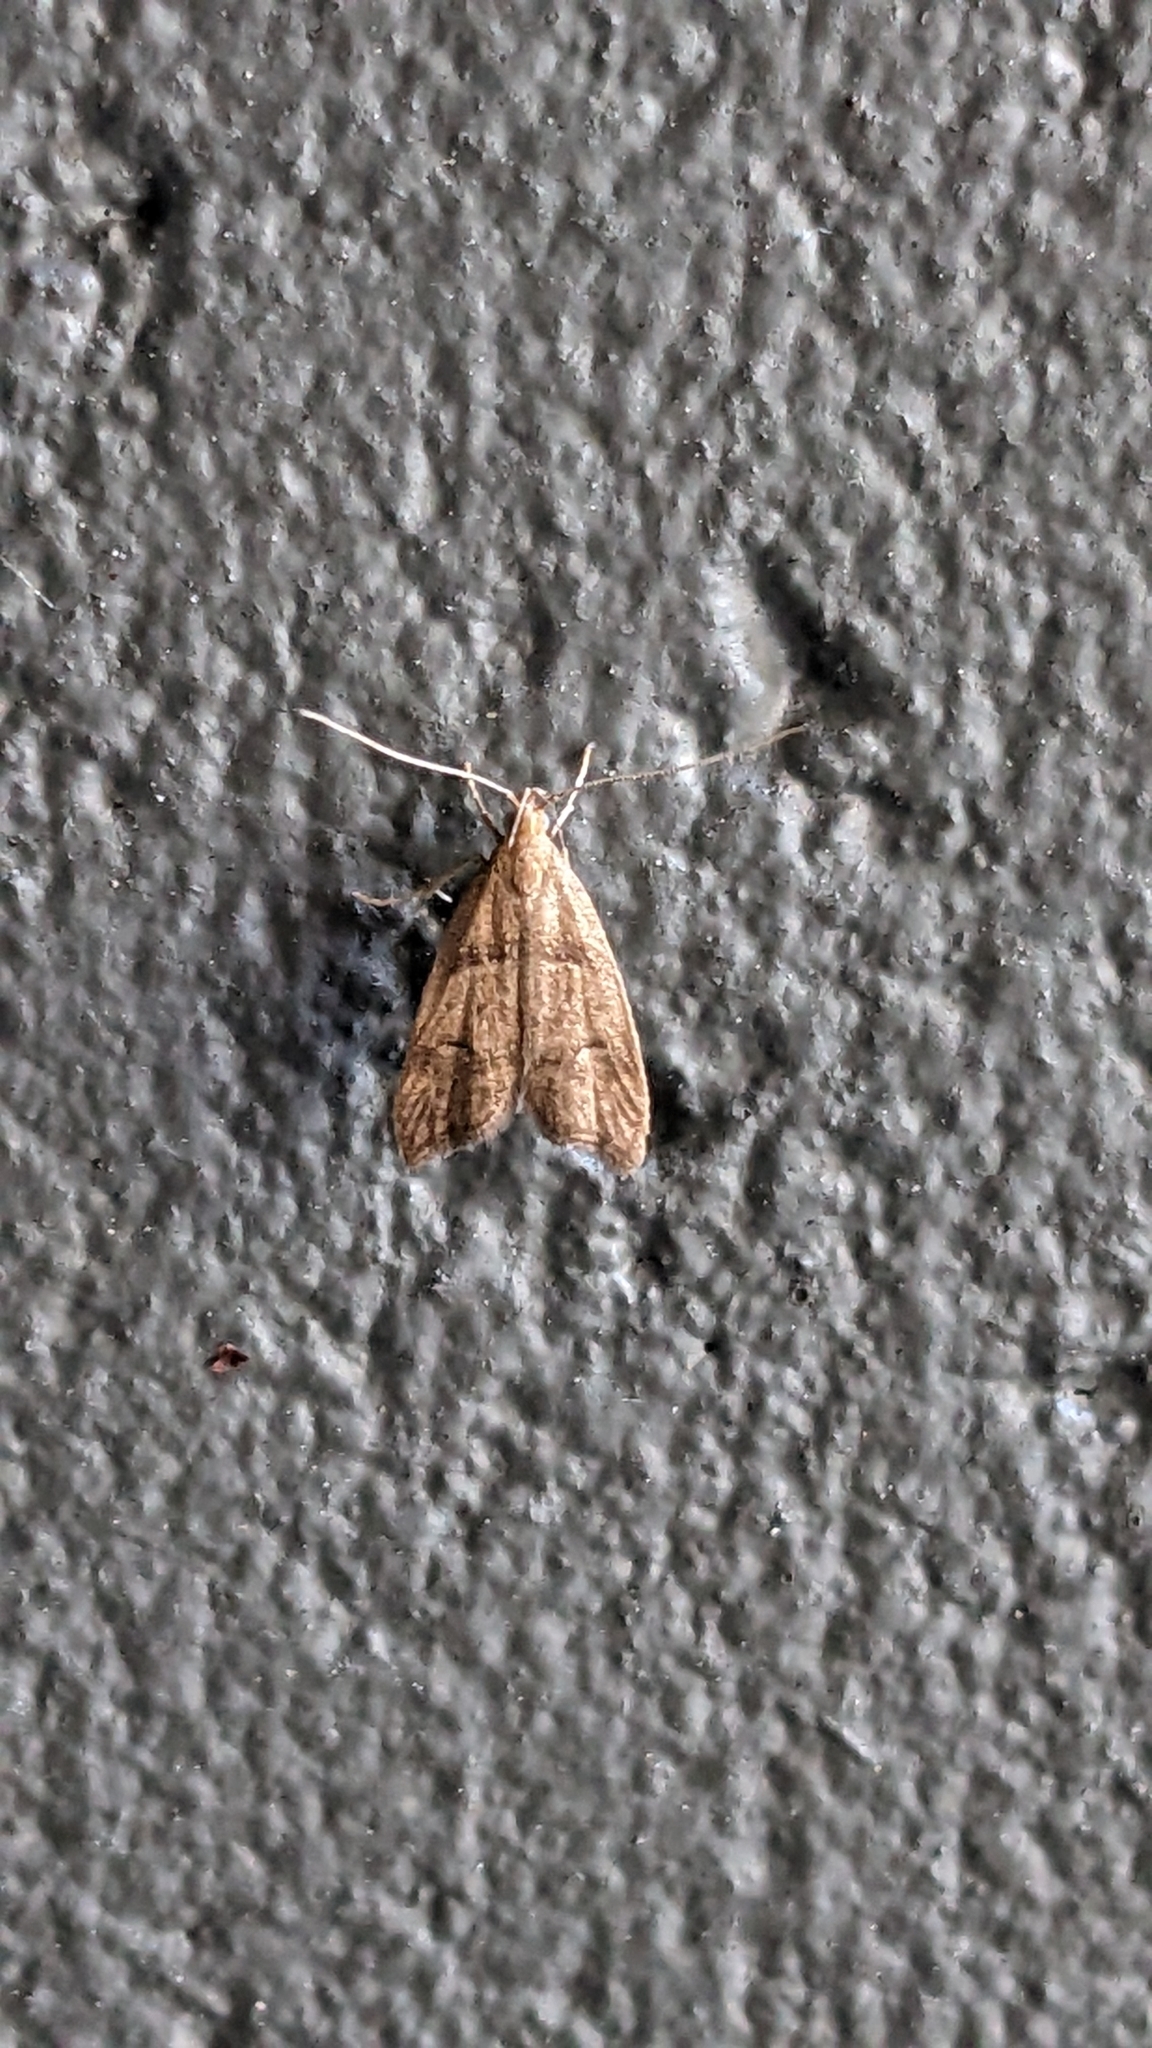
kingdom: Animalia
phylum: Arthropoda
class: Insecta
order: Lepidoptera
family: Oecophoridae
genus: Gymnobathra
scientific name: Gymnobathra hamatella
